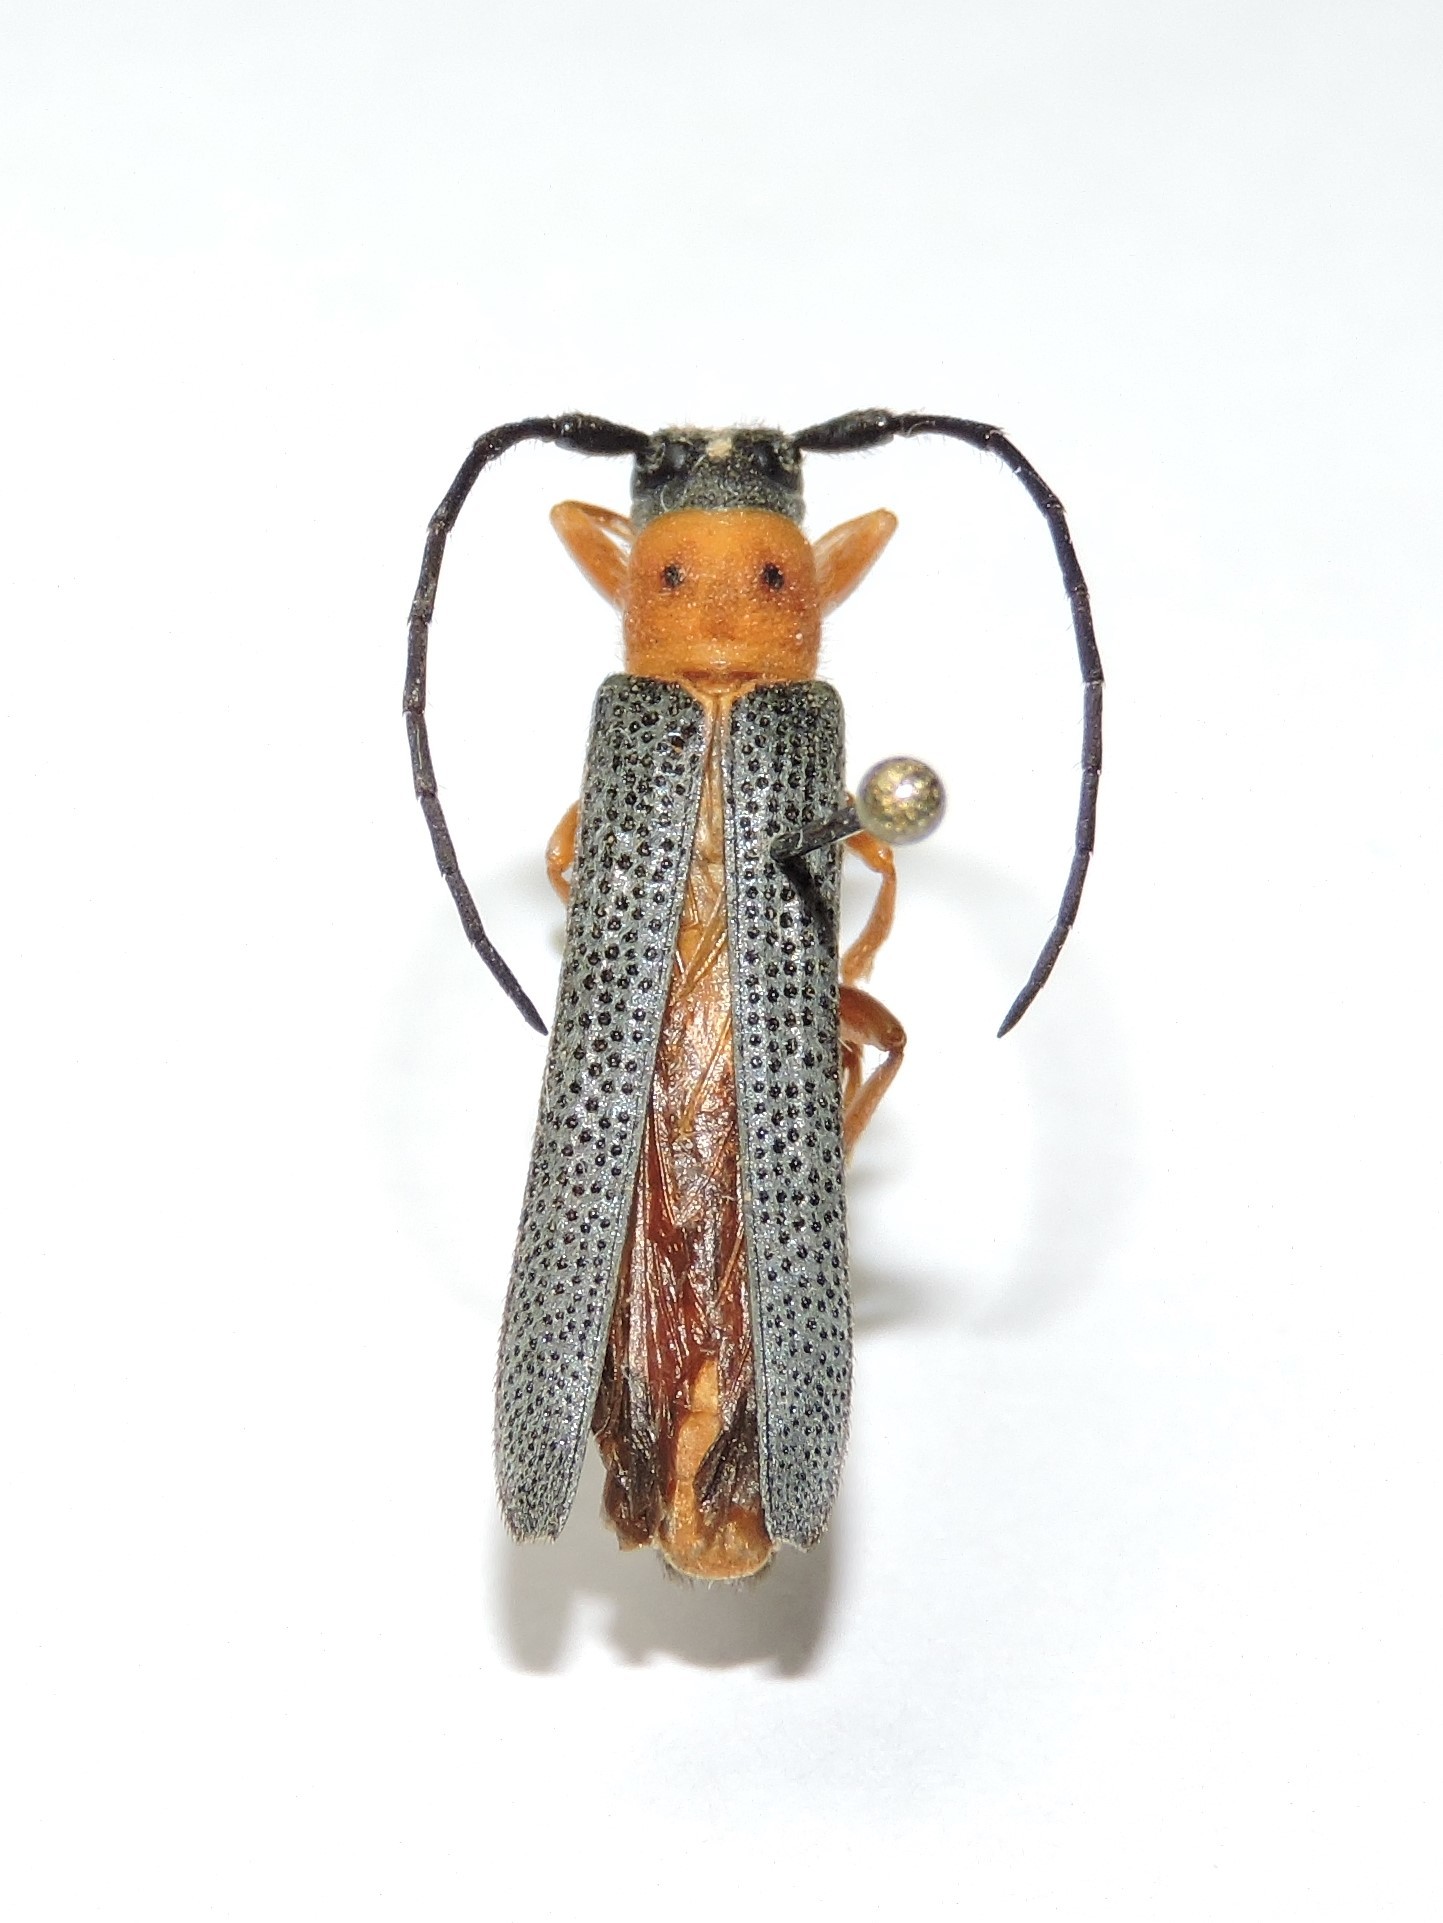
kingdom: Animalia
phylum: Arthropoda
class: Insecta
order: Coleoptera
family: Cerambycidae
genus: Oberea
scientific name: Oberea oculata
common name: Eyed longhorn beetle
